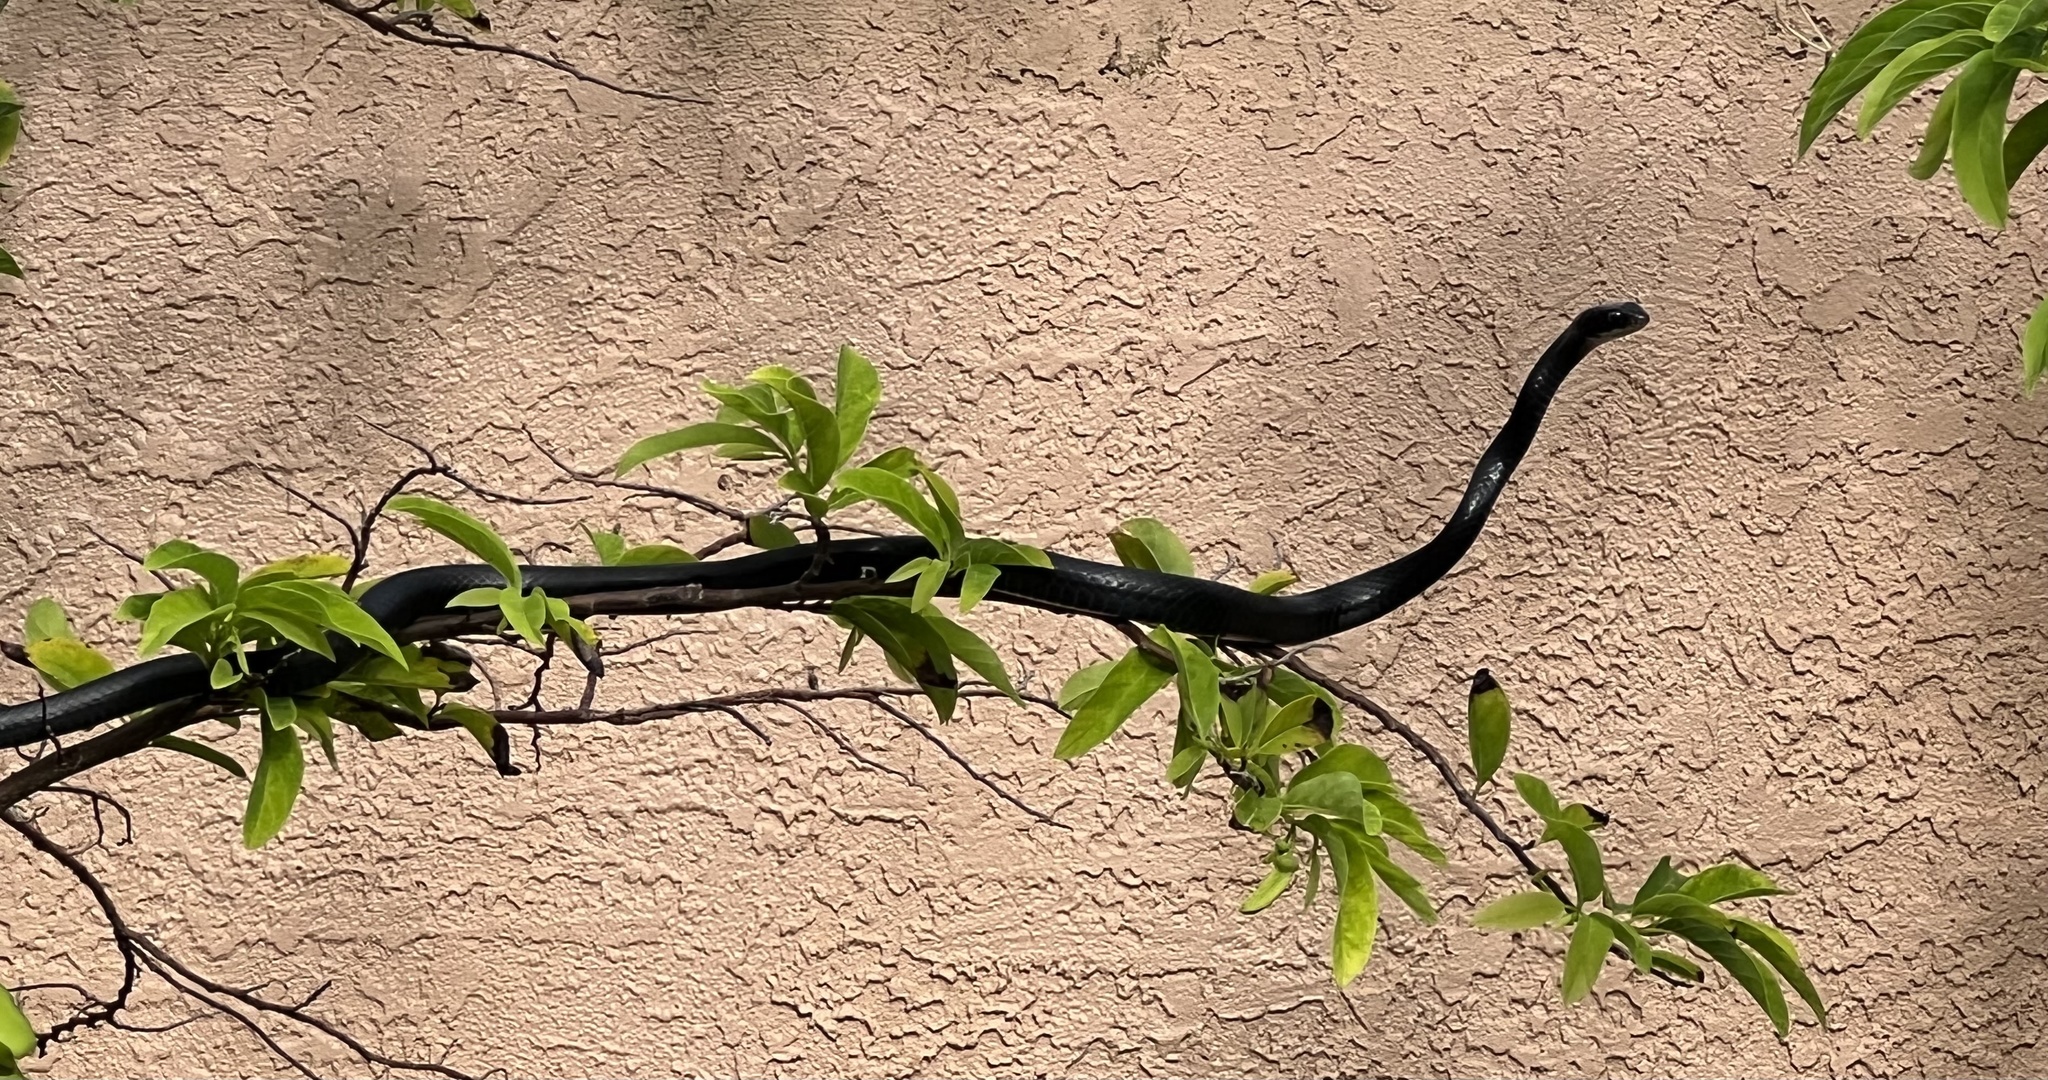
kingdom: Animalia
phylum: Chordata
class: Squamata
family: Colubridae
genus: Coluber
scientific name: Coluber constrictor
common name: Eastern racer
